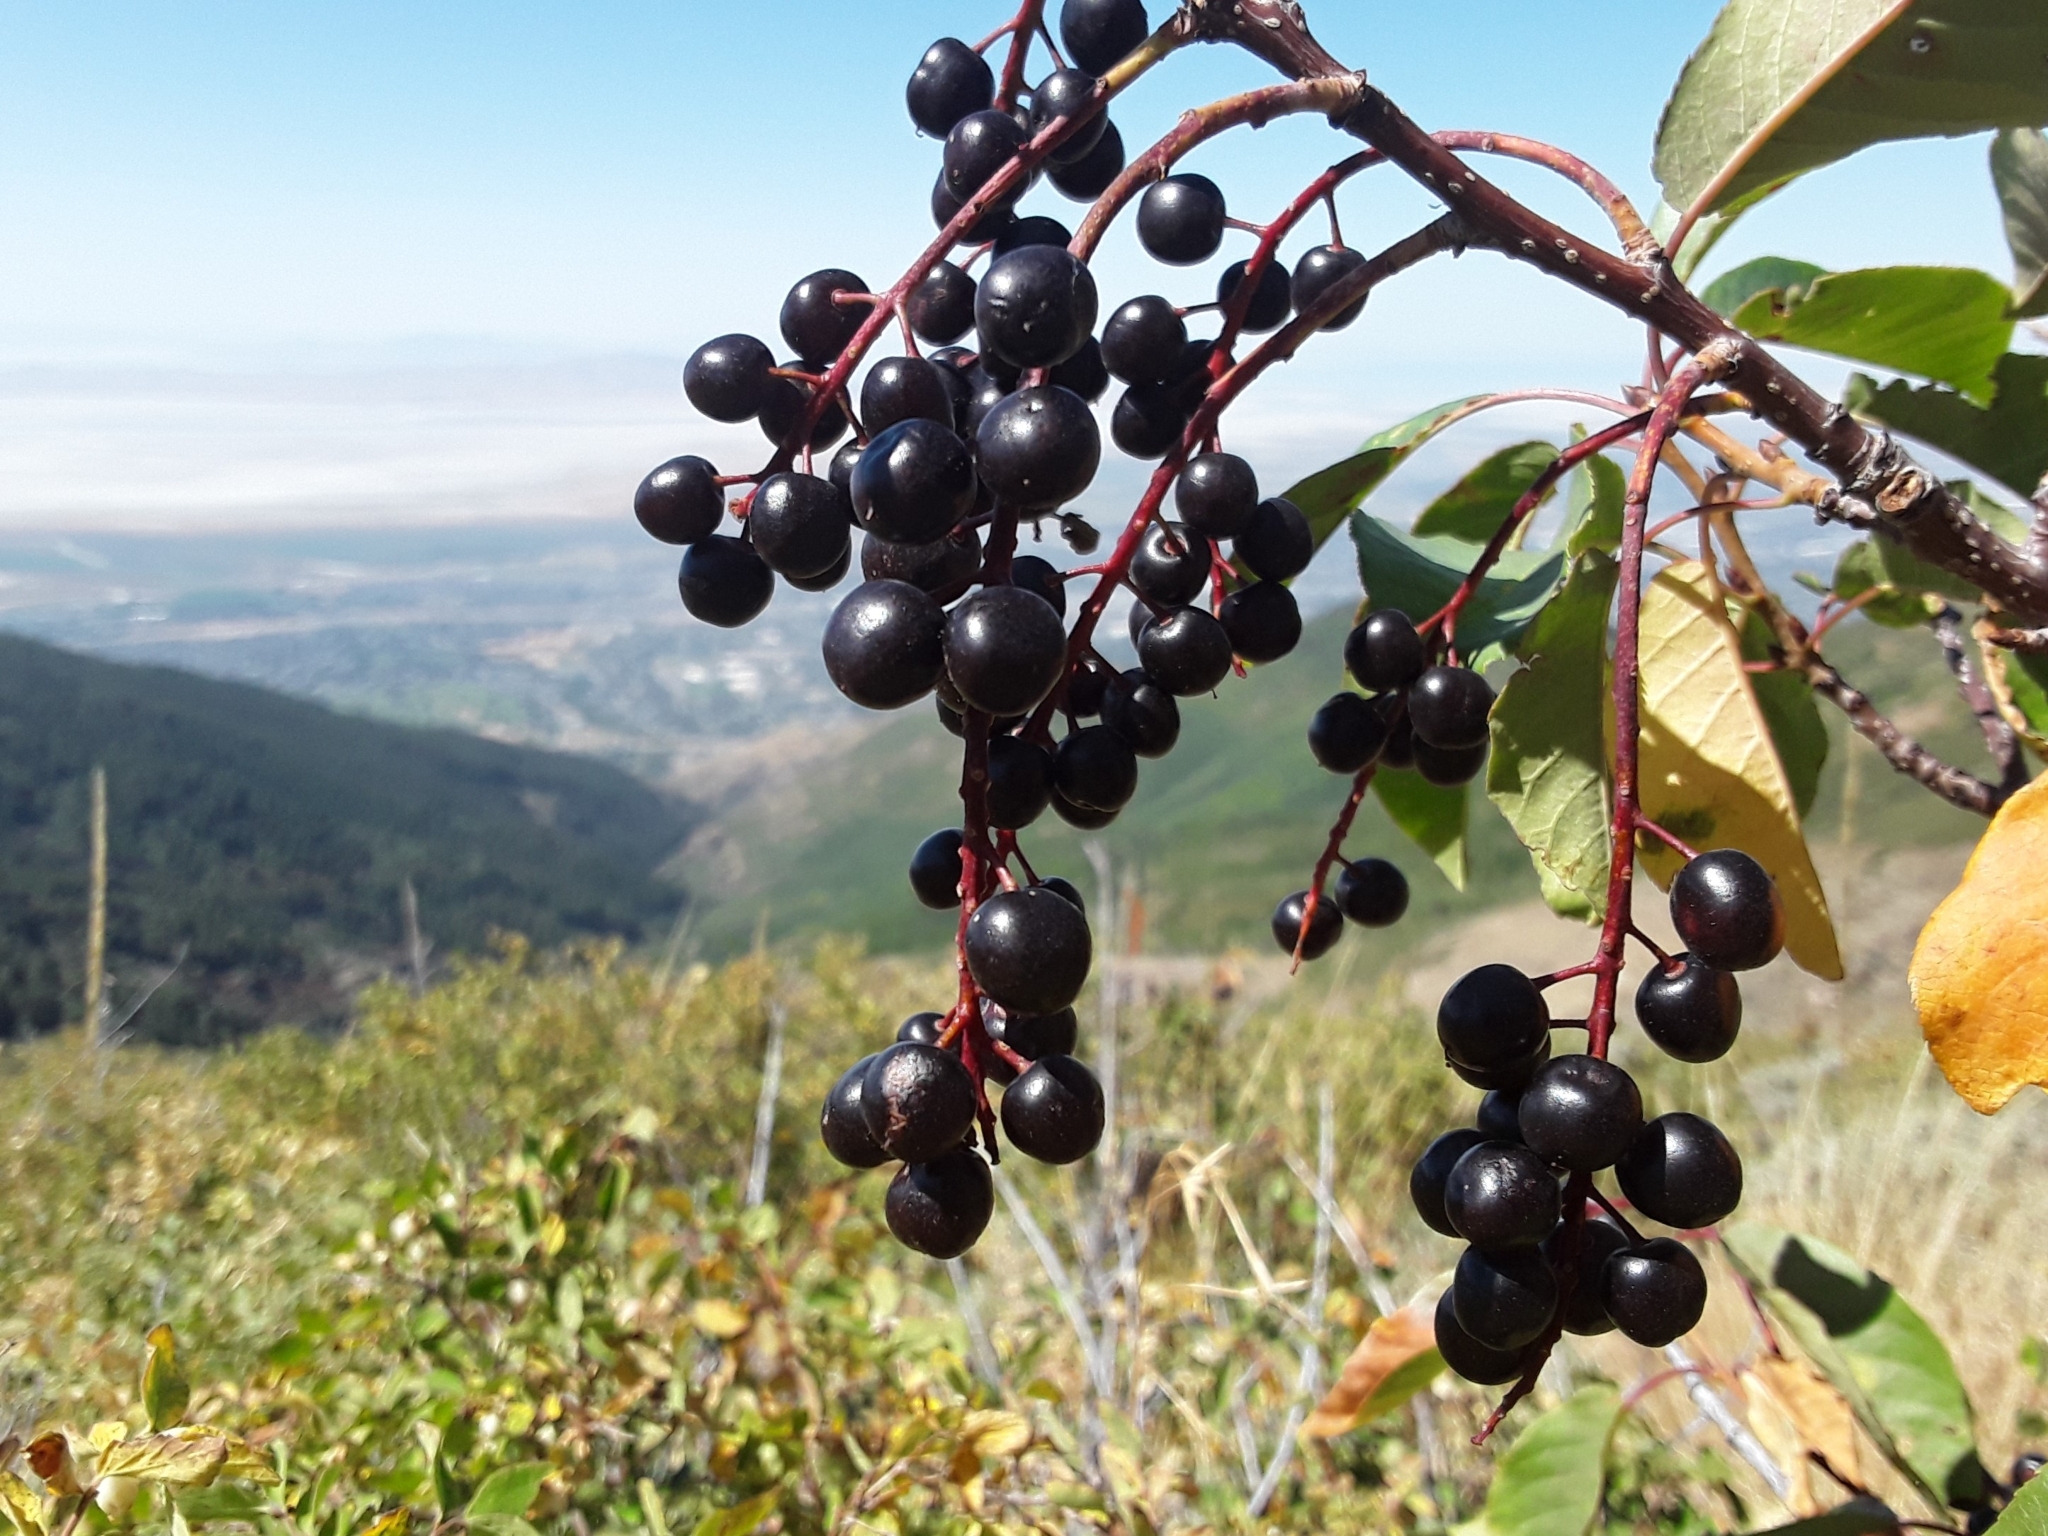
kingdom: Plantae
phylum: Tracheophyta
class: Magnoliopsida
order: Rosales
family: Rosaceae
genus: Prunus
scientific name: Prunus virginiana
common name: Chokecherry
